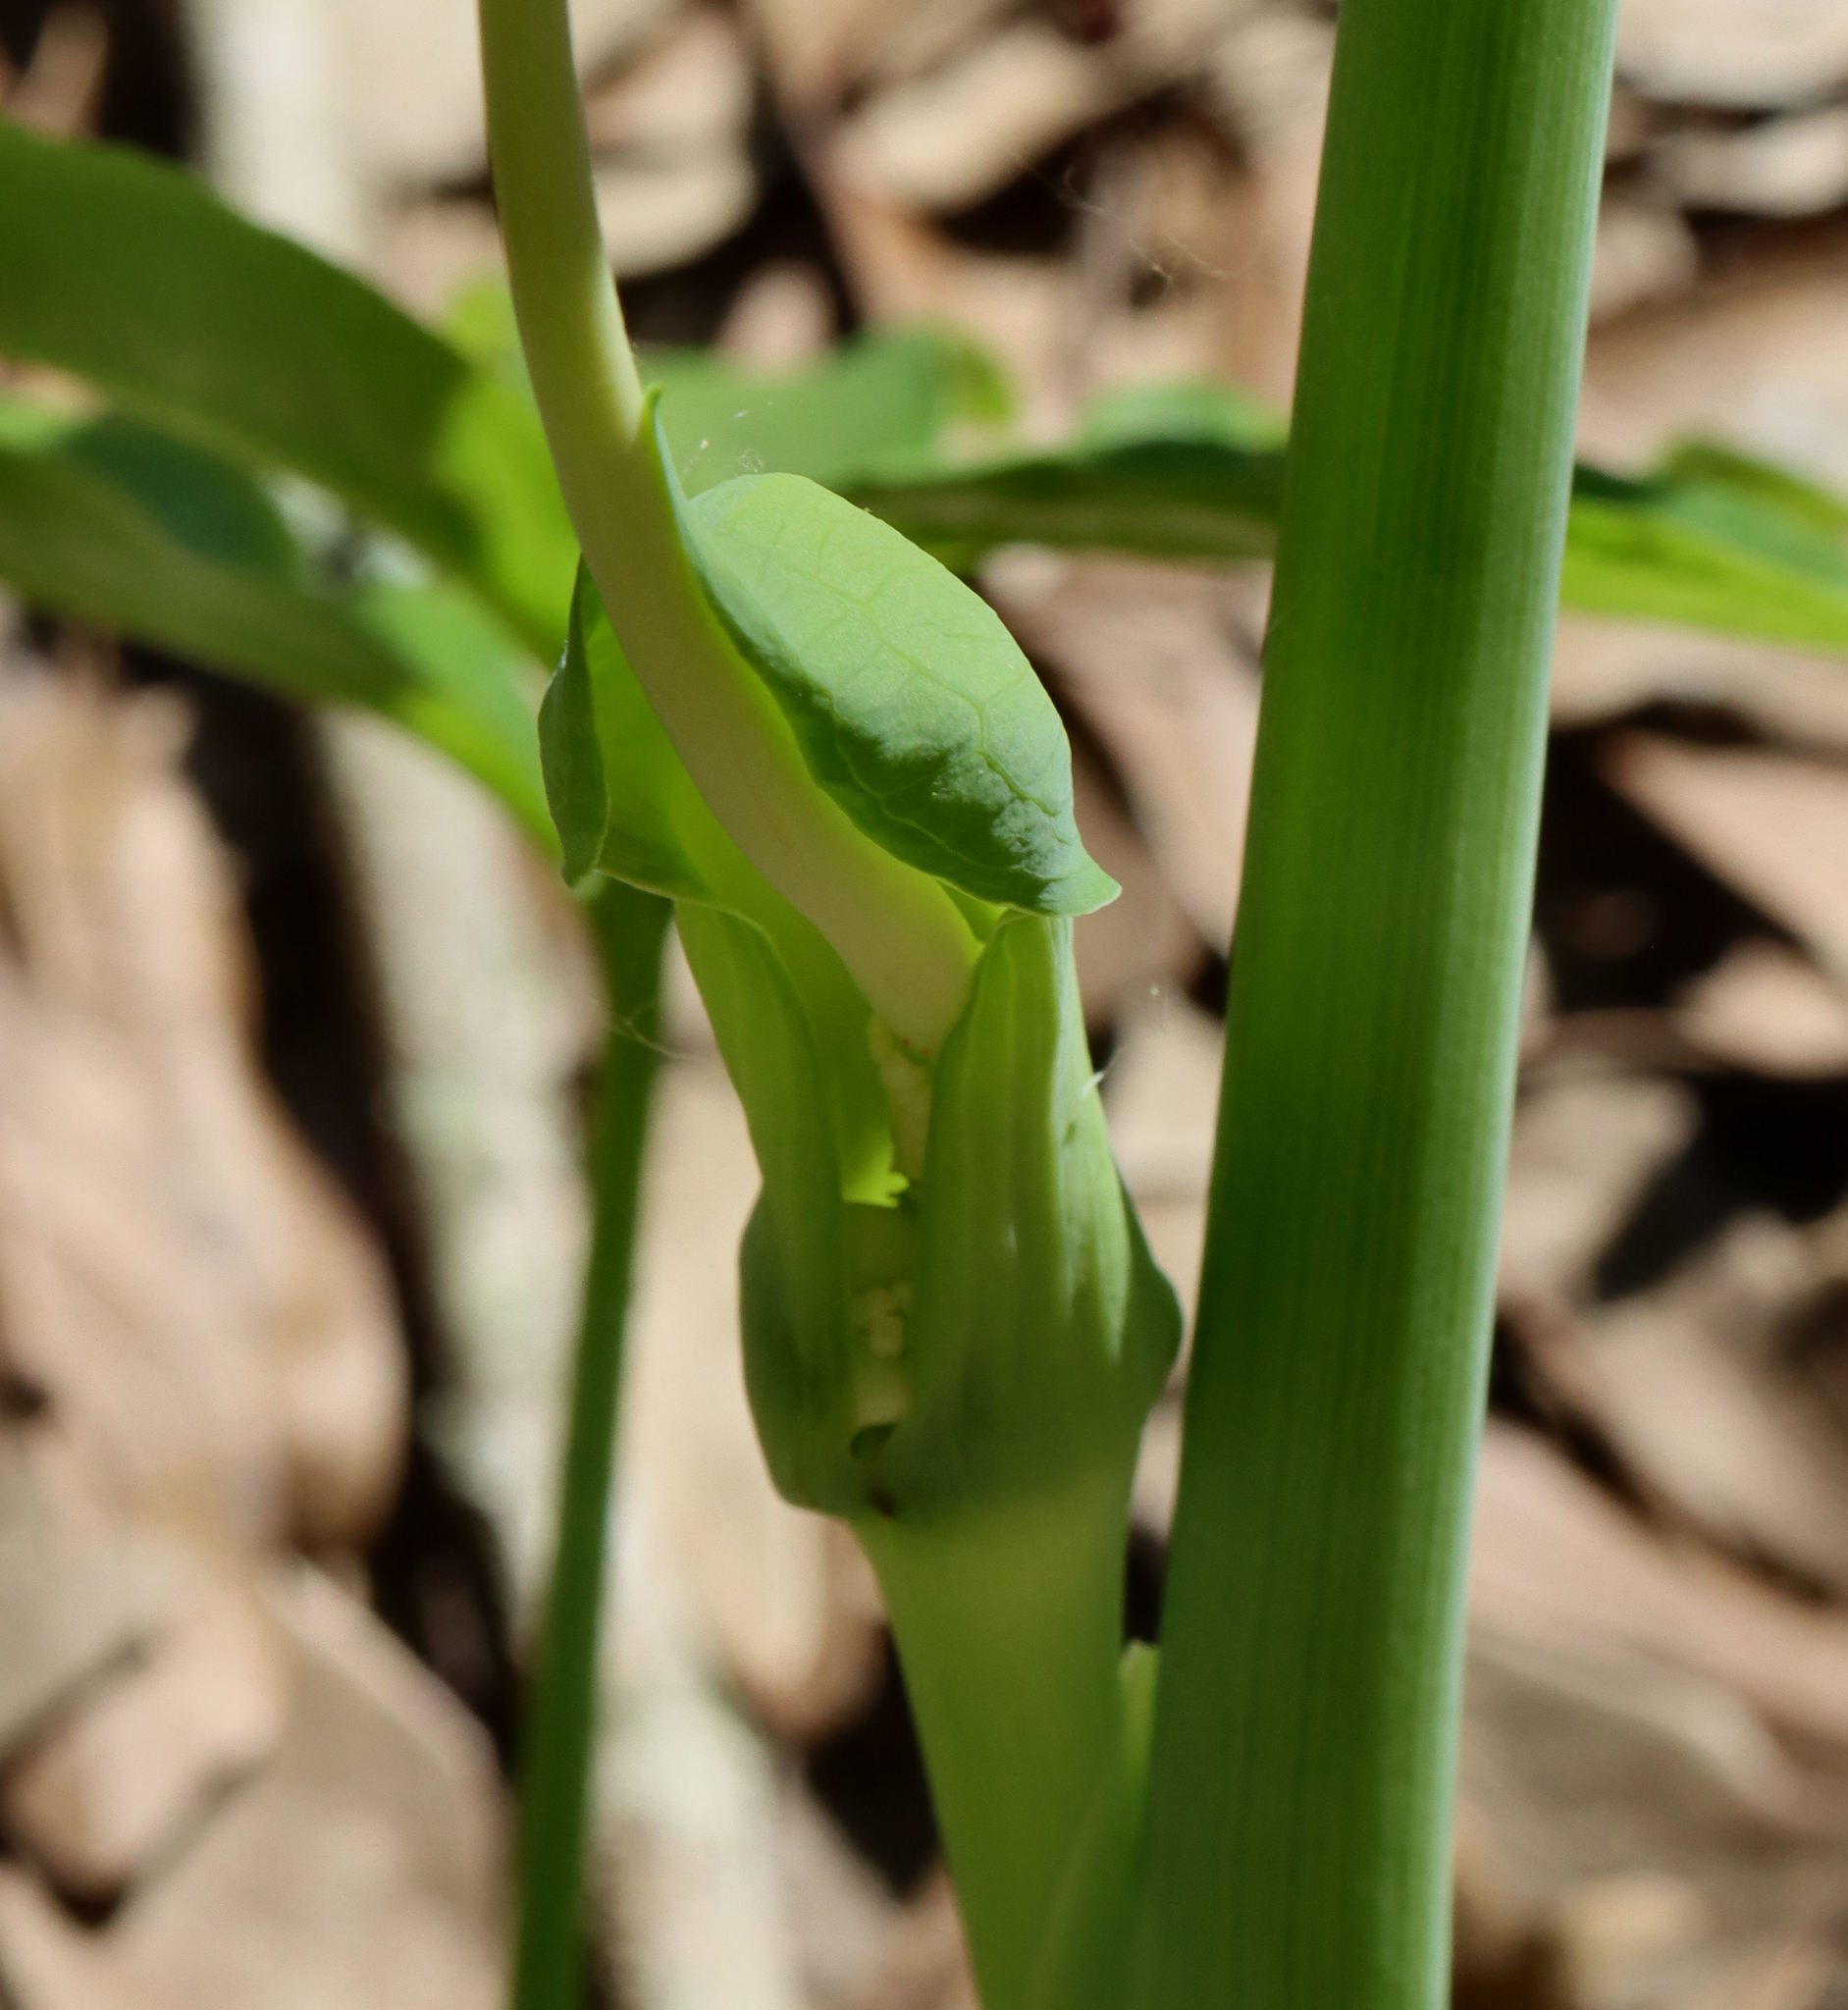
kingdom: Plantae
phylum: Tracheophyta
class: Liliopsida
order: Alismatales
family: Araceae
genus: Arisaema
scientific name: Arisaema dracontium
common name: Dragon-arum
